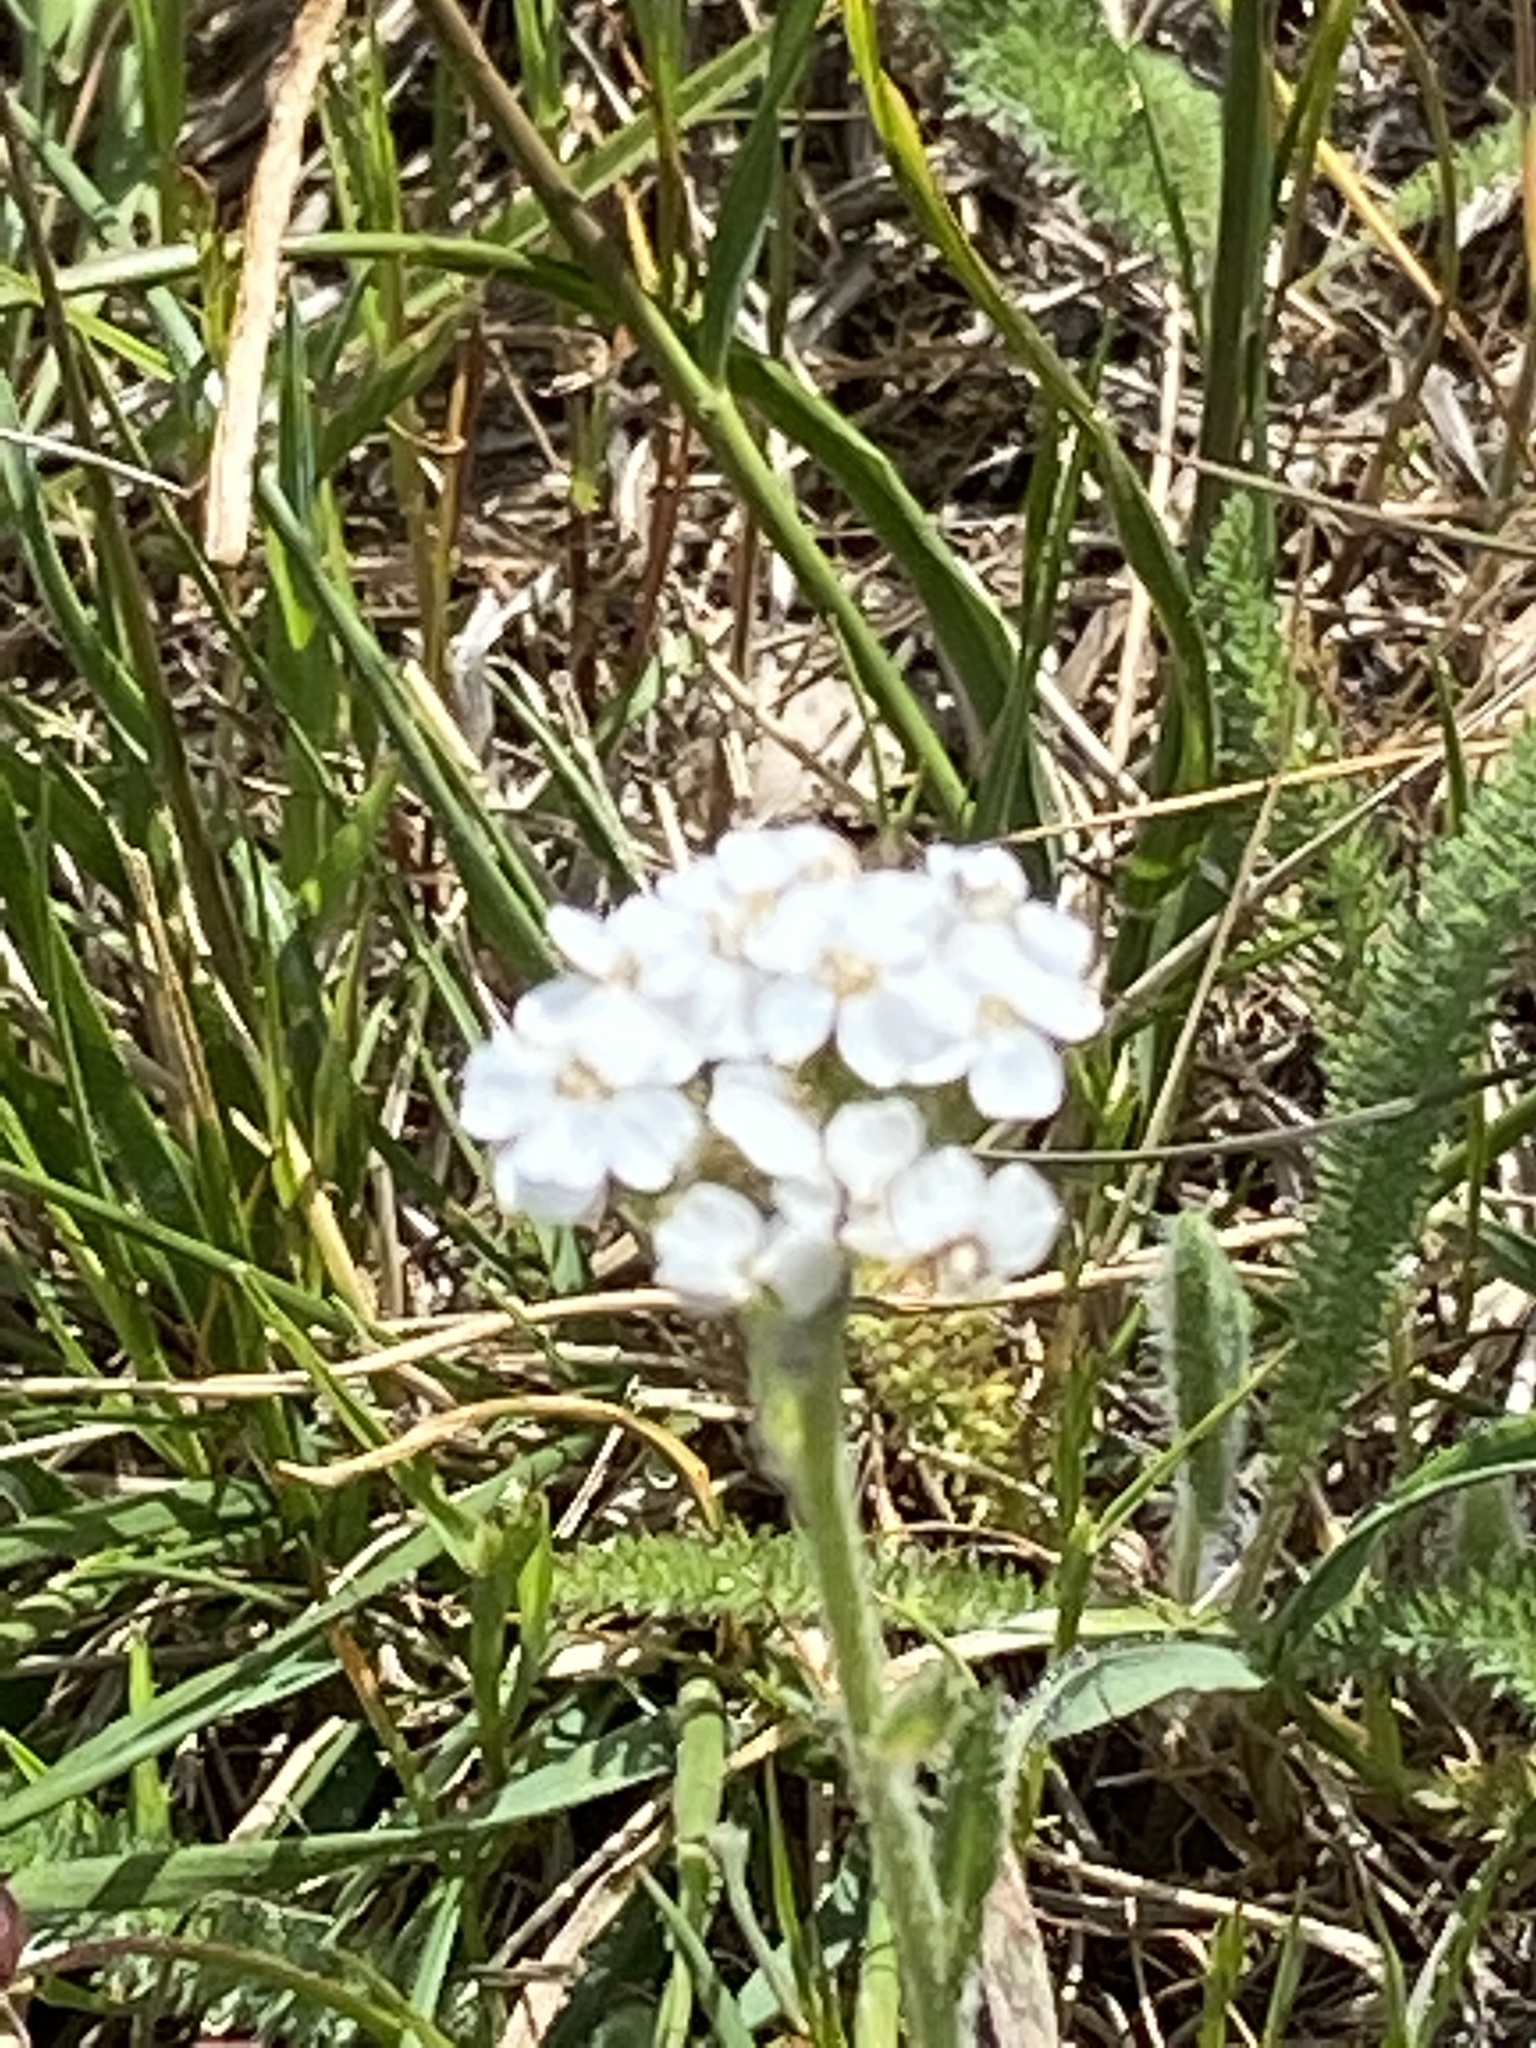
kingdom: Plantae
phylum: Tracheophyta
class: Magnoliopsida
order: Asterales
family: Asteraceae
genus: Achillea
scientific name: Achillea millefolium
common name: Yarrow
